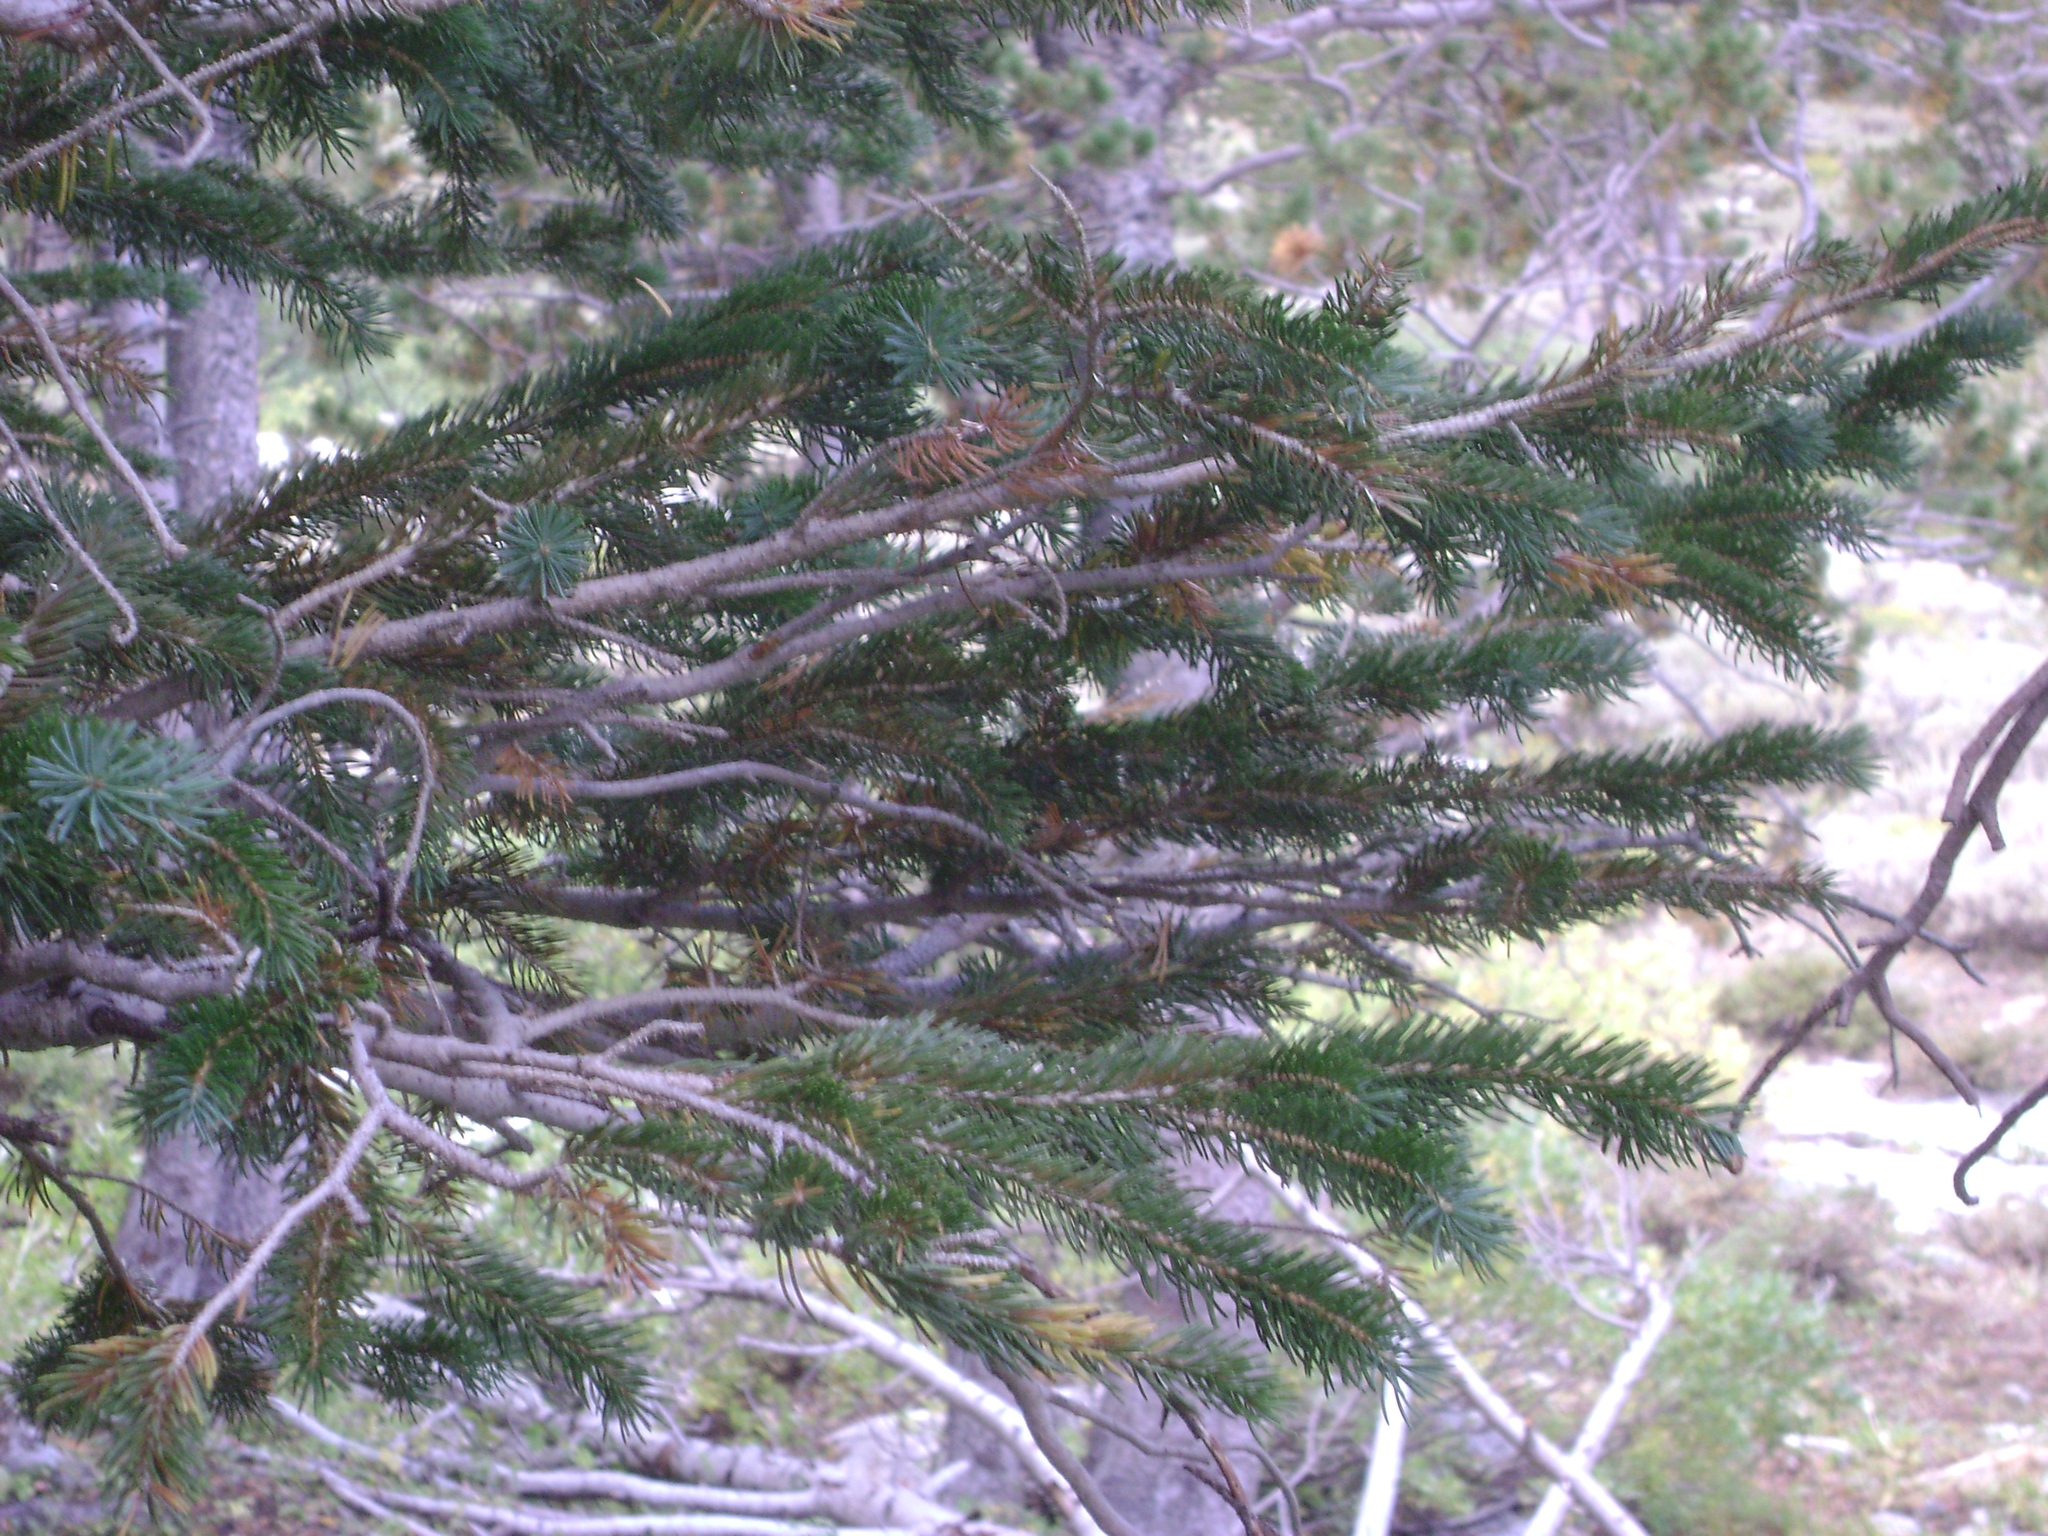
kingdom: Plantae
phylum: Tracheophyta
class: Pinopsida
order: Pinales
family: Pinaceae
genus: Picea
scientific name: Picea engelmannii
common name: Engelmann spruce
